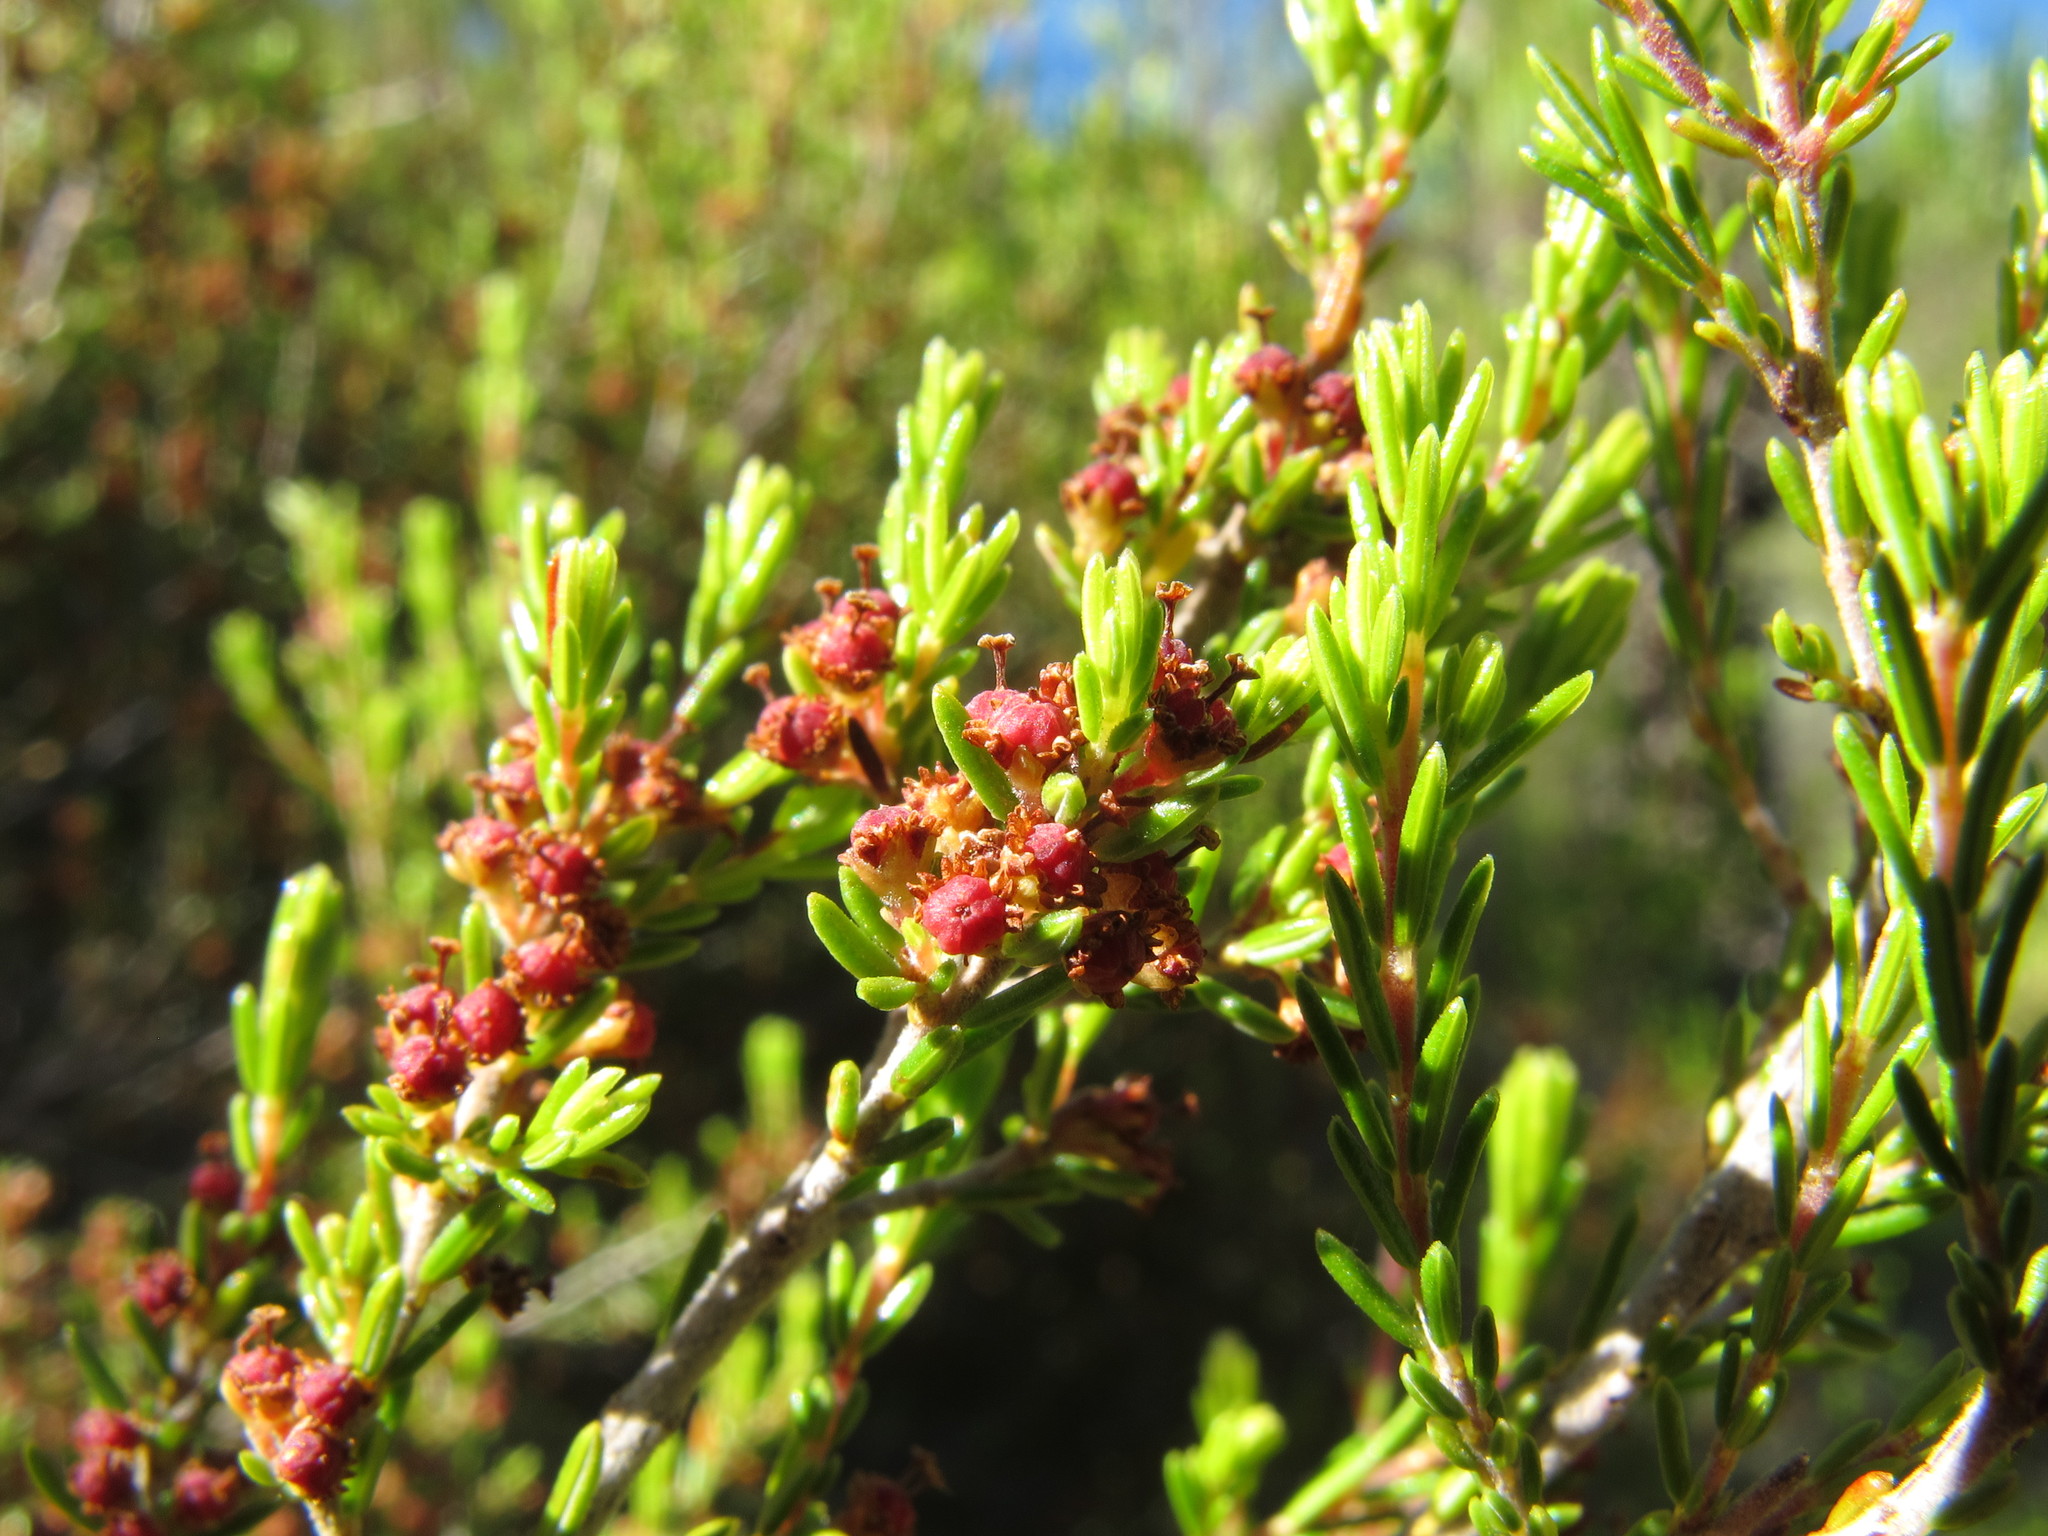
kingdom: Plantae
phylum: Tracheophyta
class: Magnoliopsida
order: Ericales
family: Ericaceae
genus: Erica
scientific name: Erica karooica
